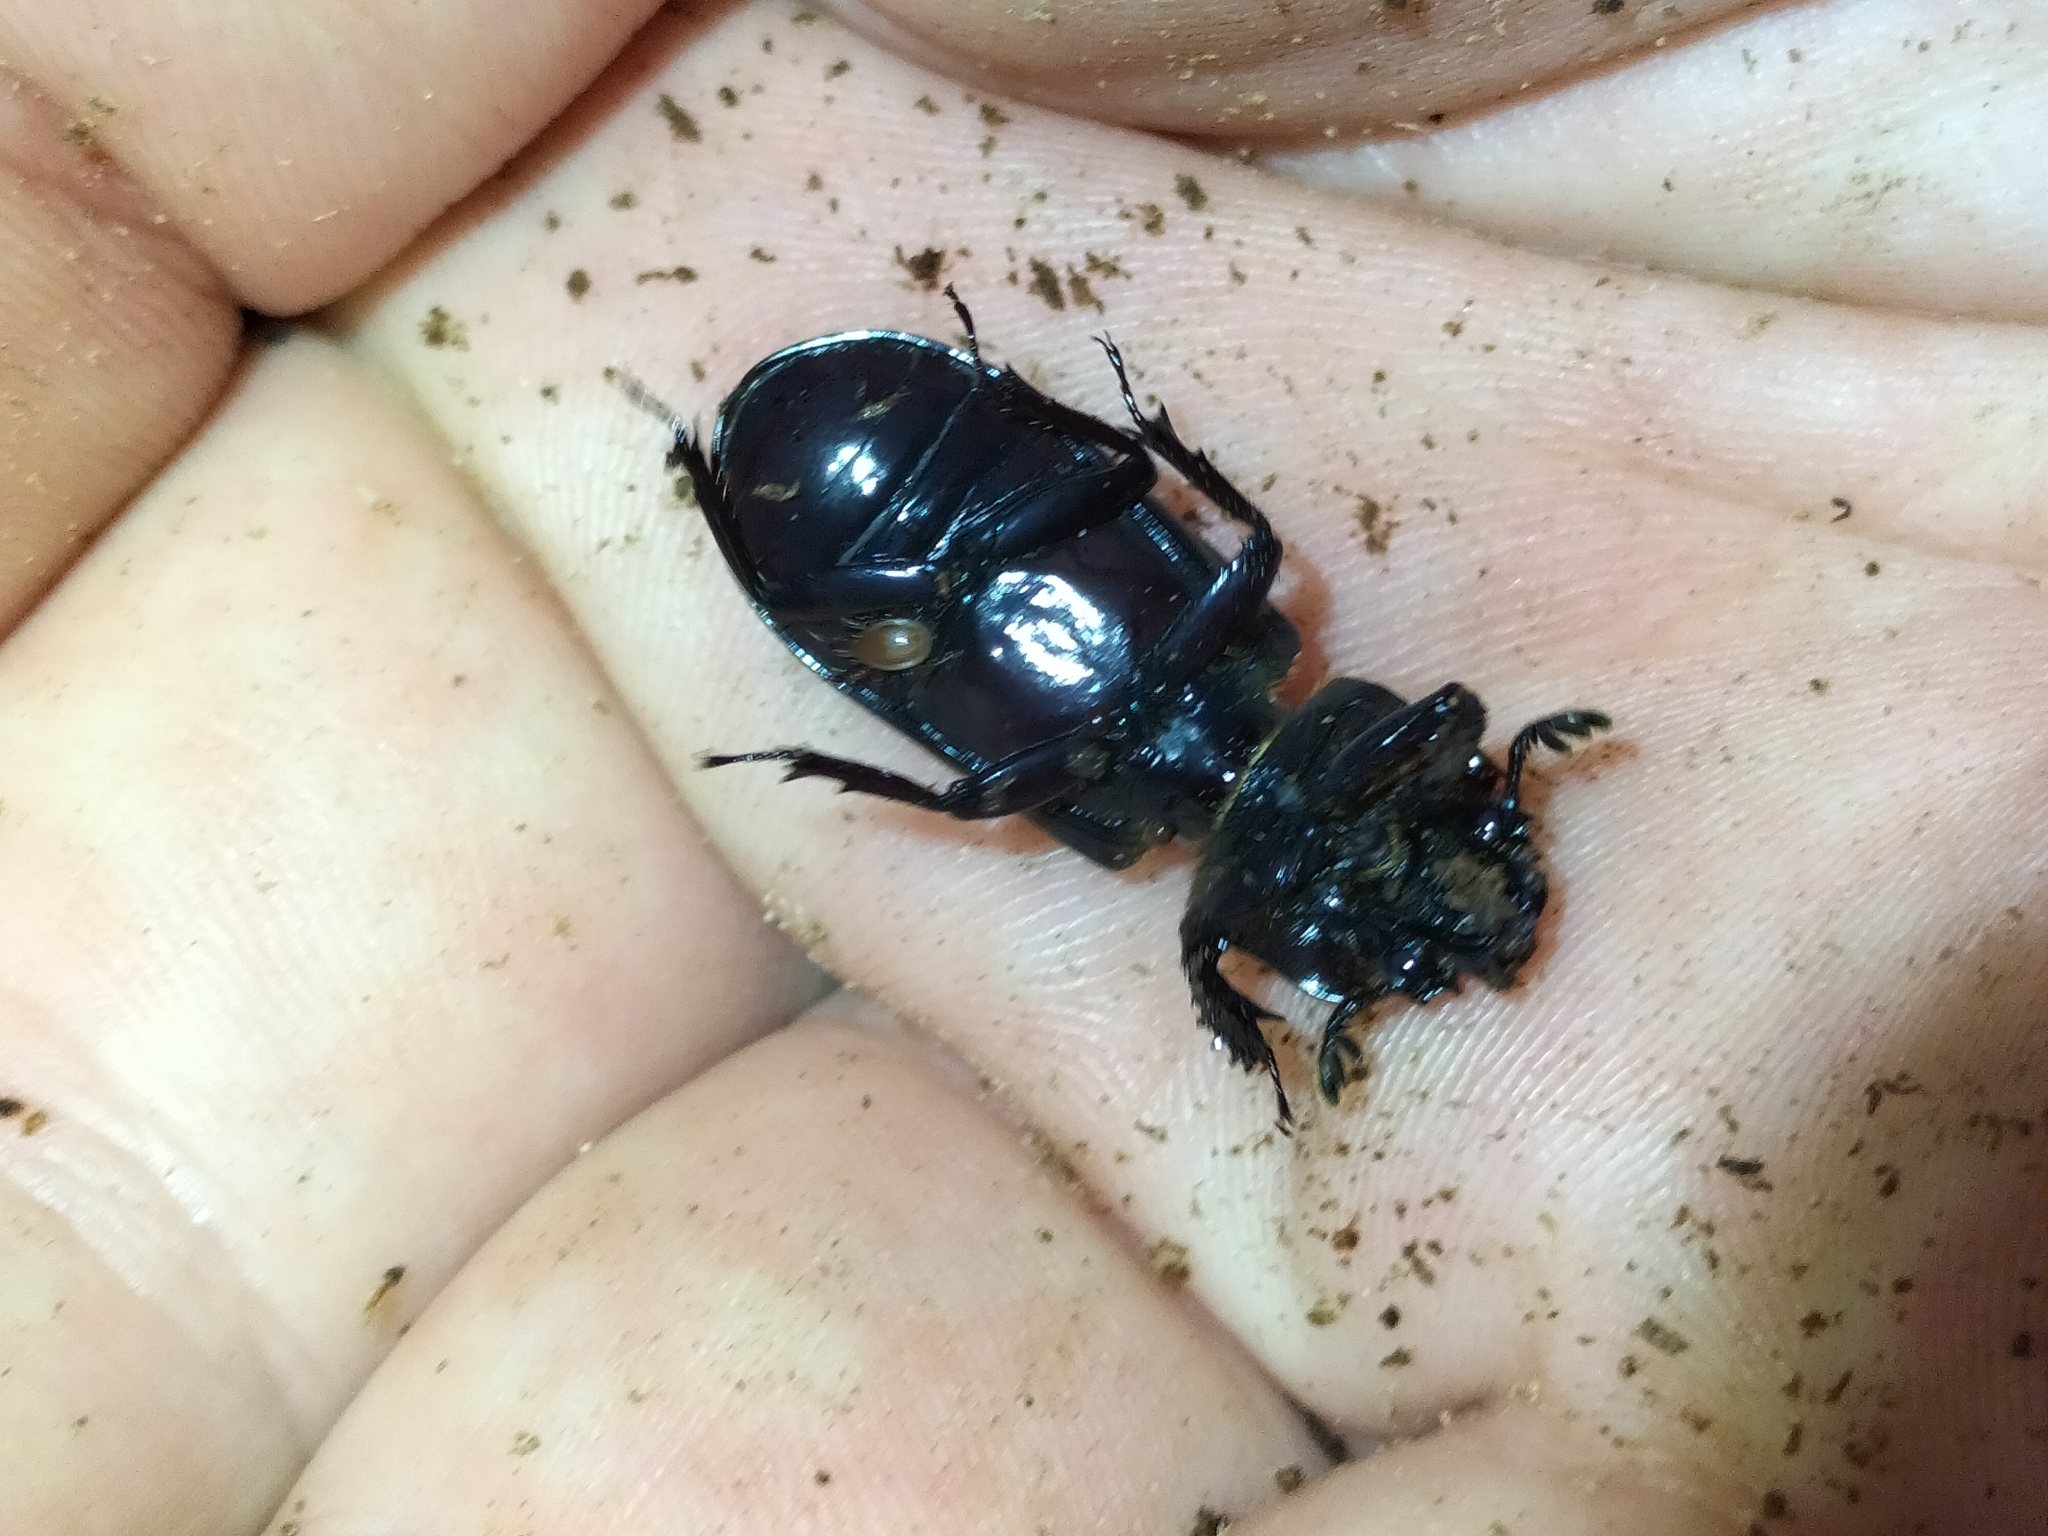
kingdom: Animalia
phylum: Arthropoda
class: Insecta
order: Coleoptera
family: Passalidae
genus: Aulacocyclus
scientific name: Aulacocyclus fracticornis
